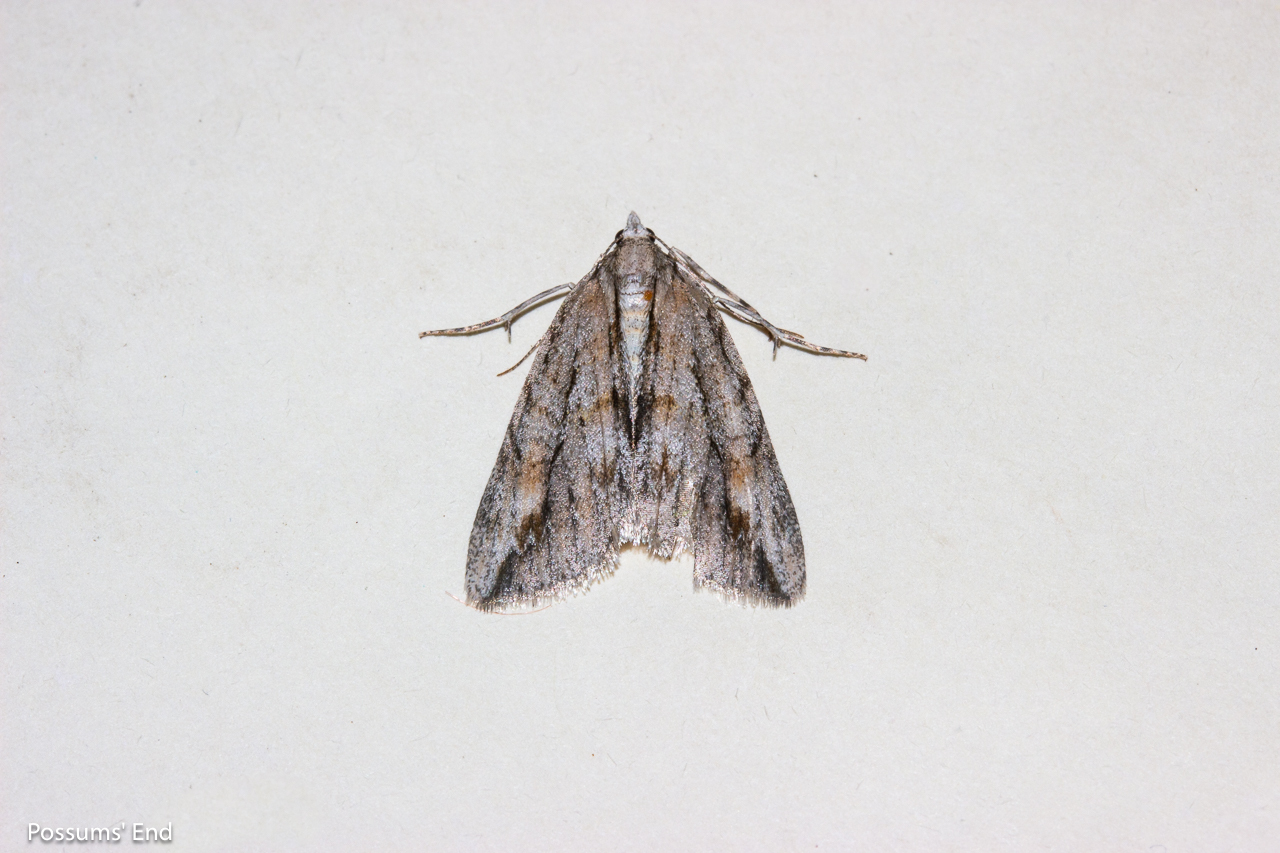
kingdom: Animalia
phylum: Arthropoda
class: Insecta
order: Lepidoptera
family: Geometridae
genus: Pseudocoremia
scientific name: Pseudocoremia lupinata
